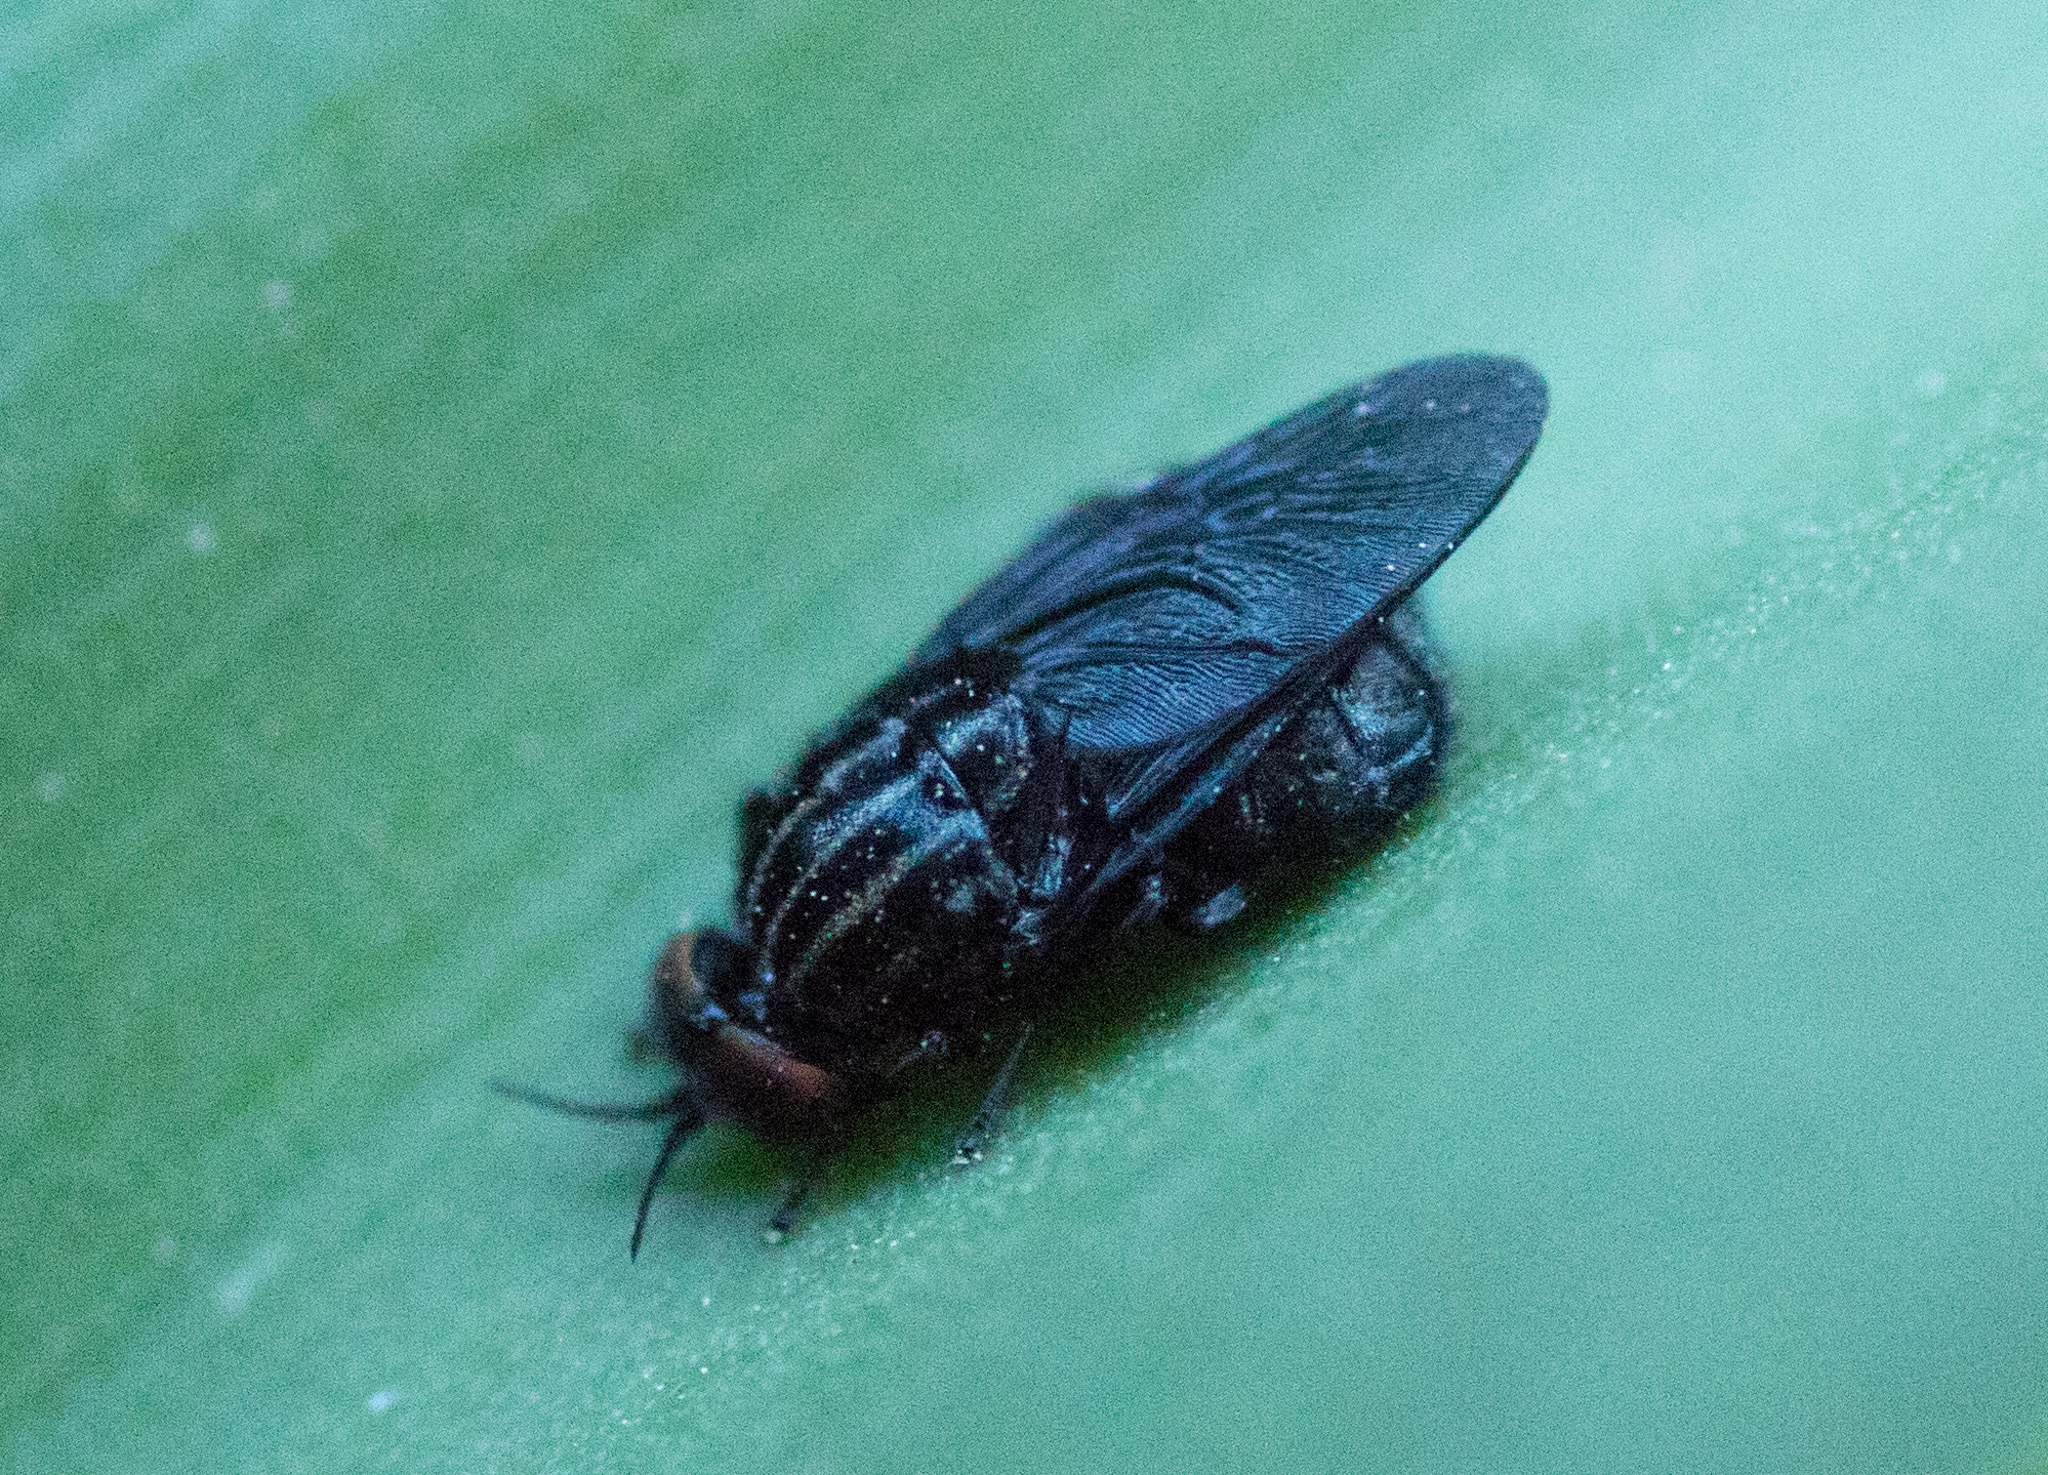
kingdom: Animalia
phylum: Arthropoda
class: Insecta
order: Diptera
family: Stratiomyidae
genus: Chordonota
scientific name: Chordonota inermis
